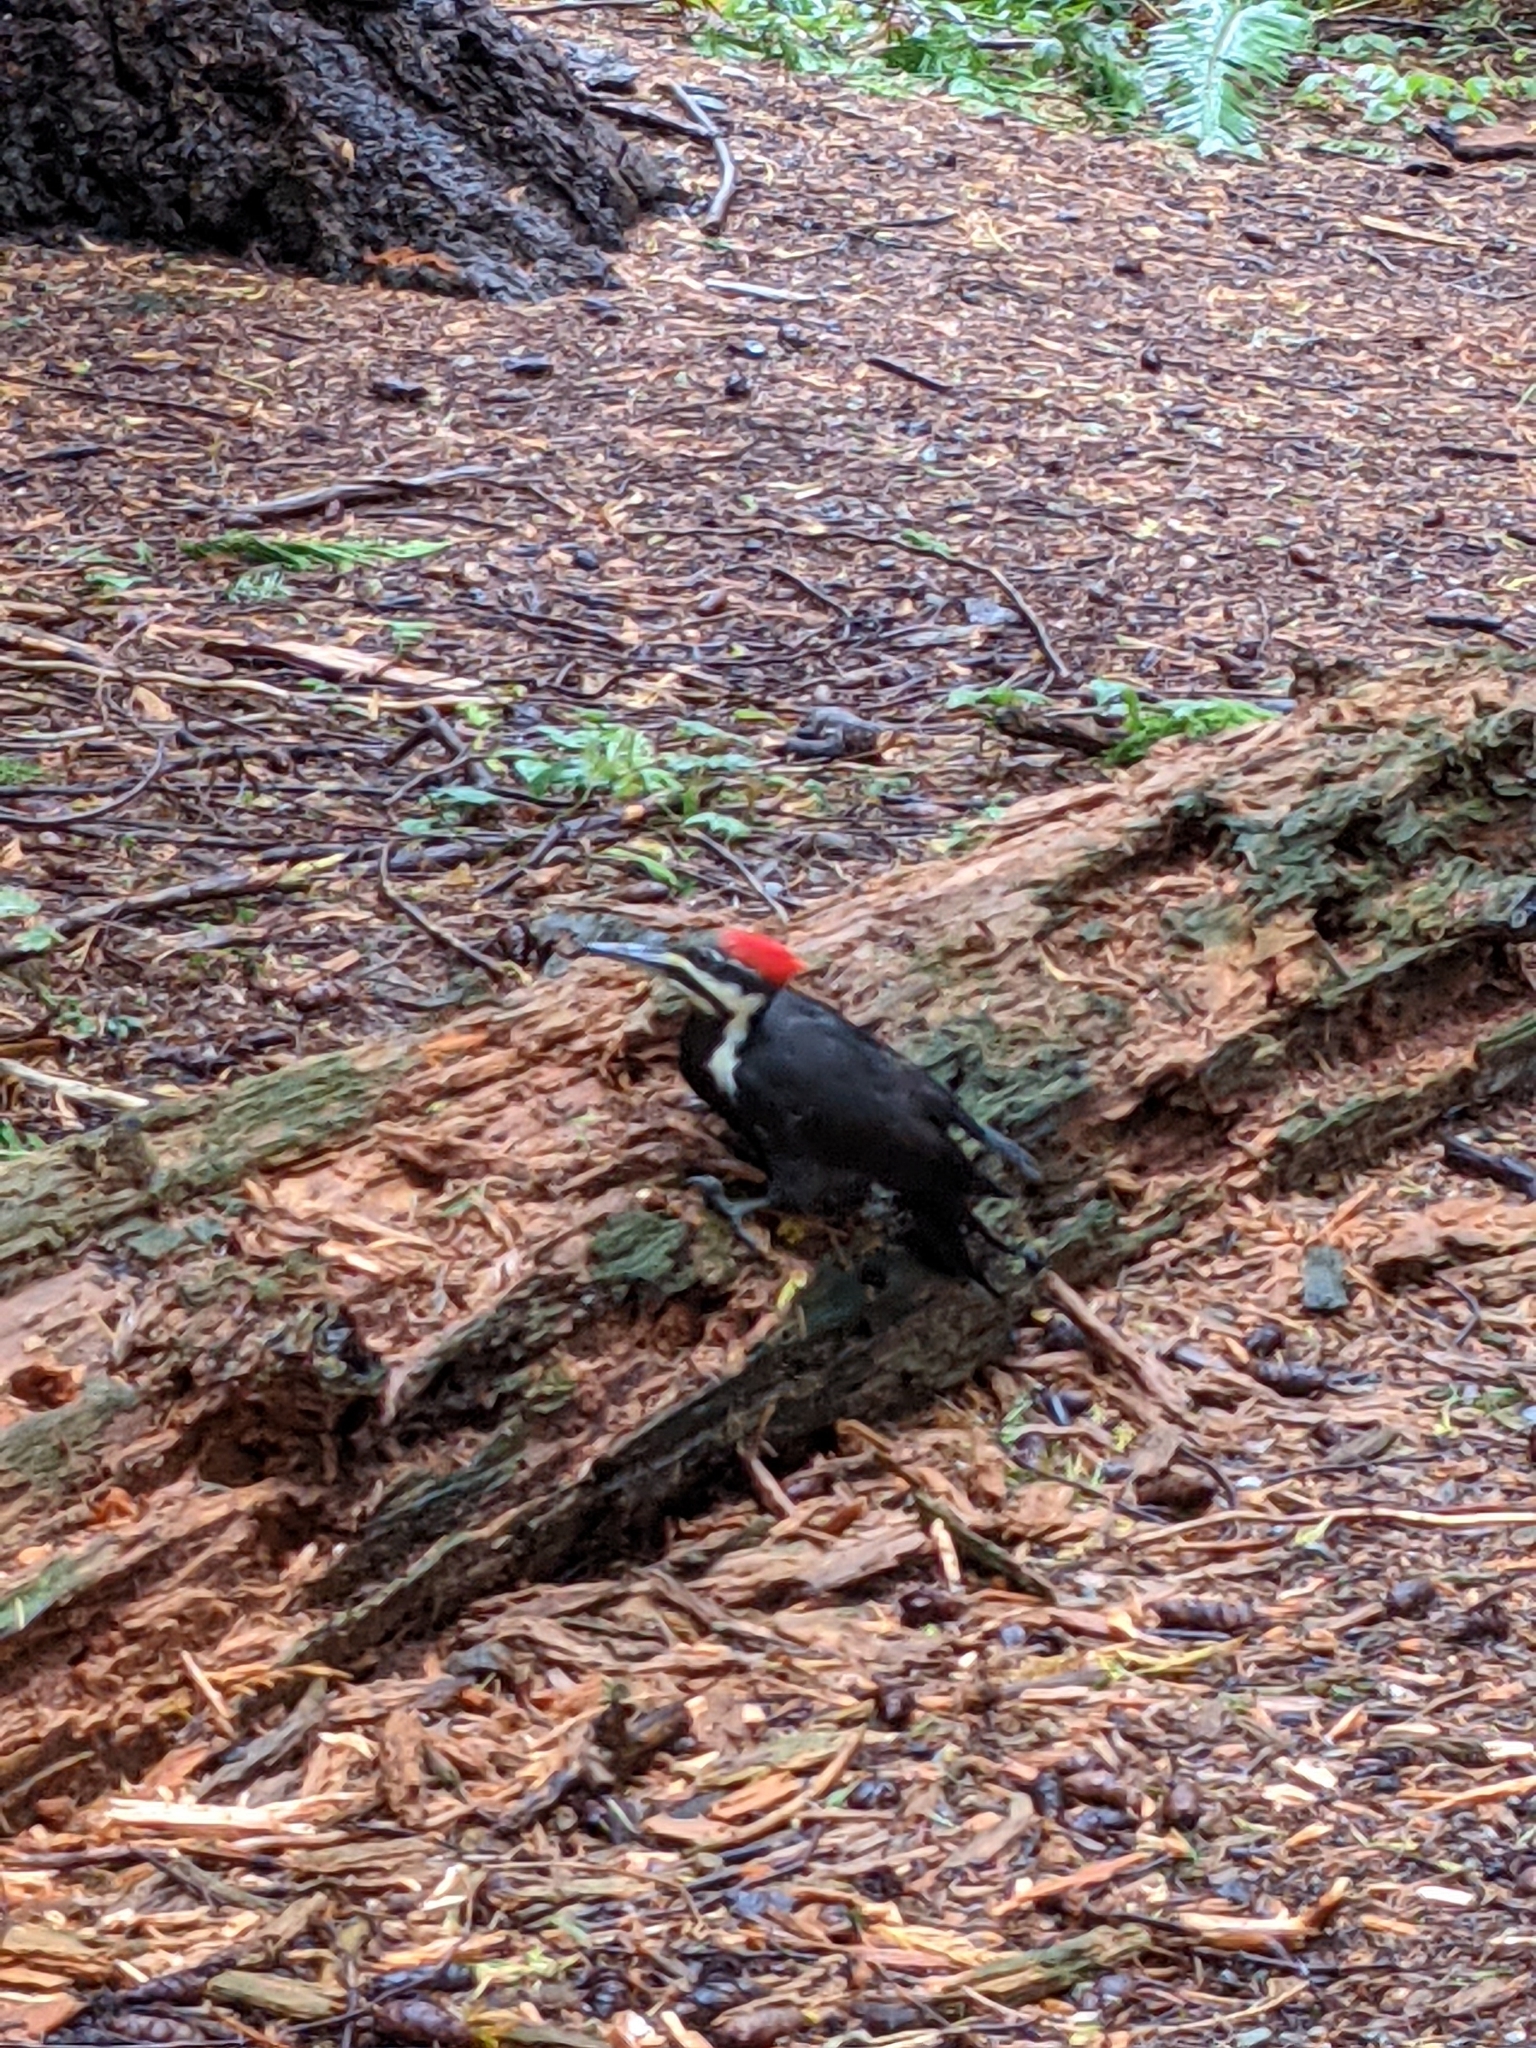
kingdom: Animalia
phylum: Chordata
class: Aves
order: Piciformes
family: Picidae
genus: Dryocopus
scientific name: Dryocopus pileatus
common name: Pileated woodpecker
